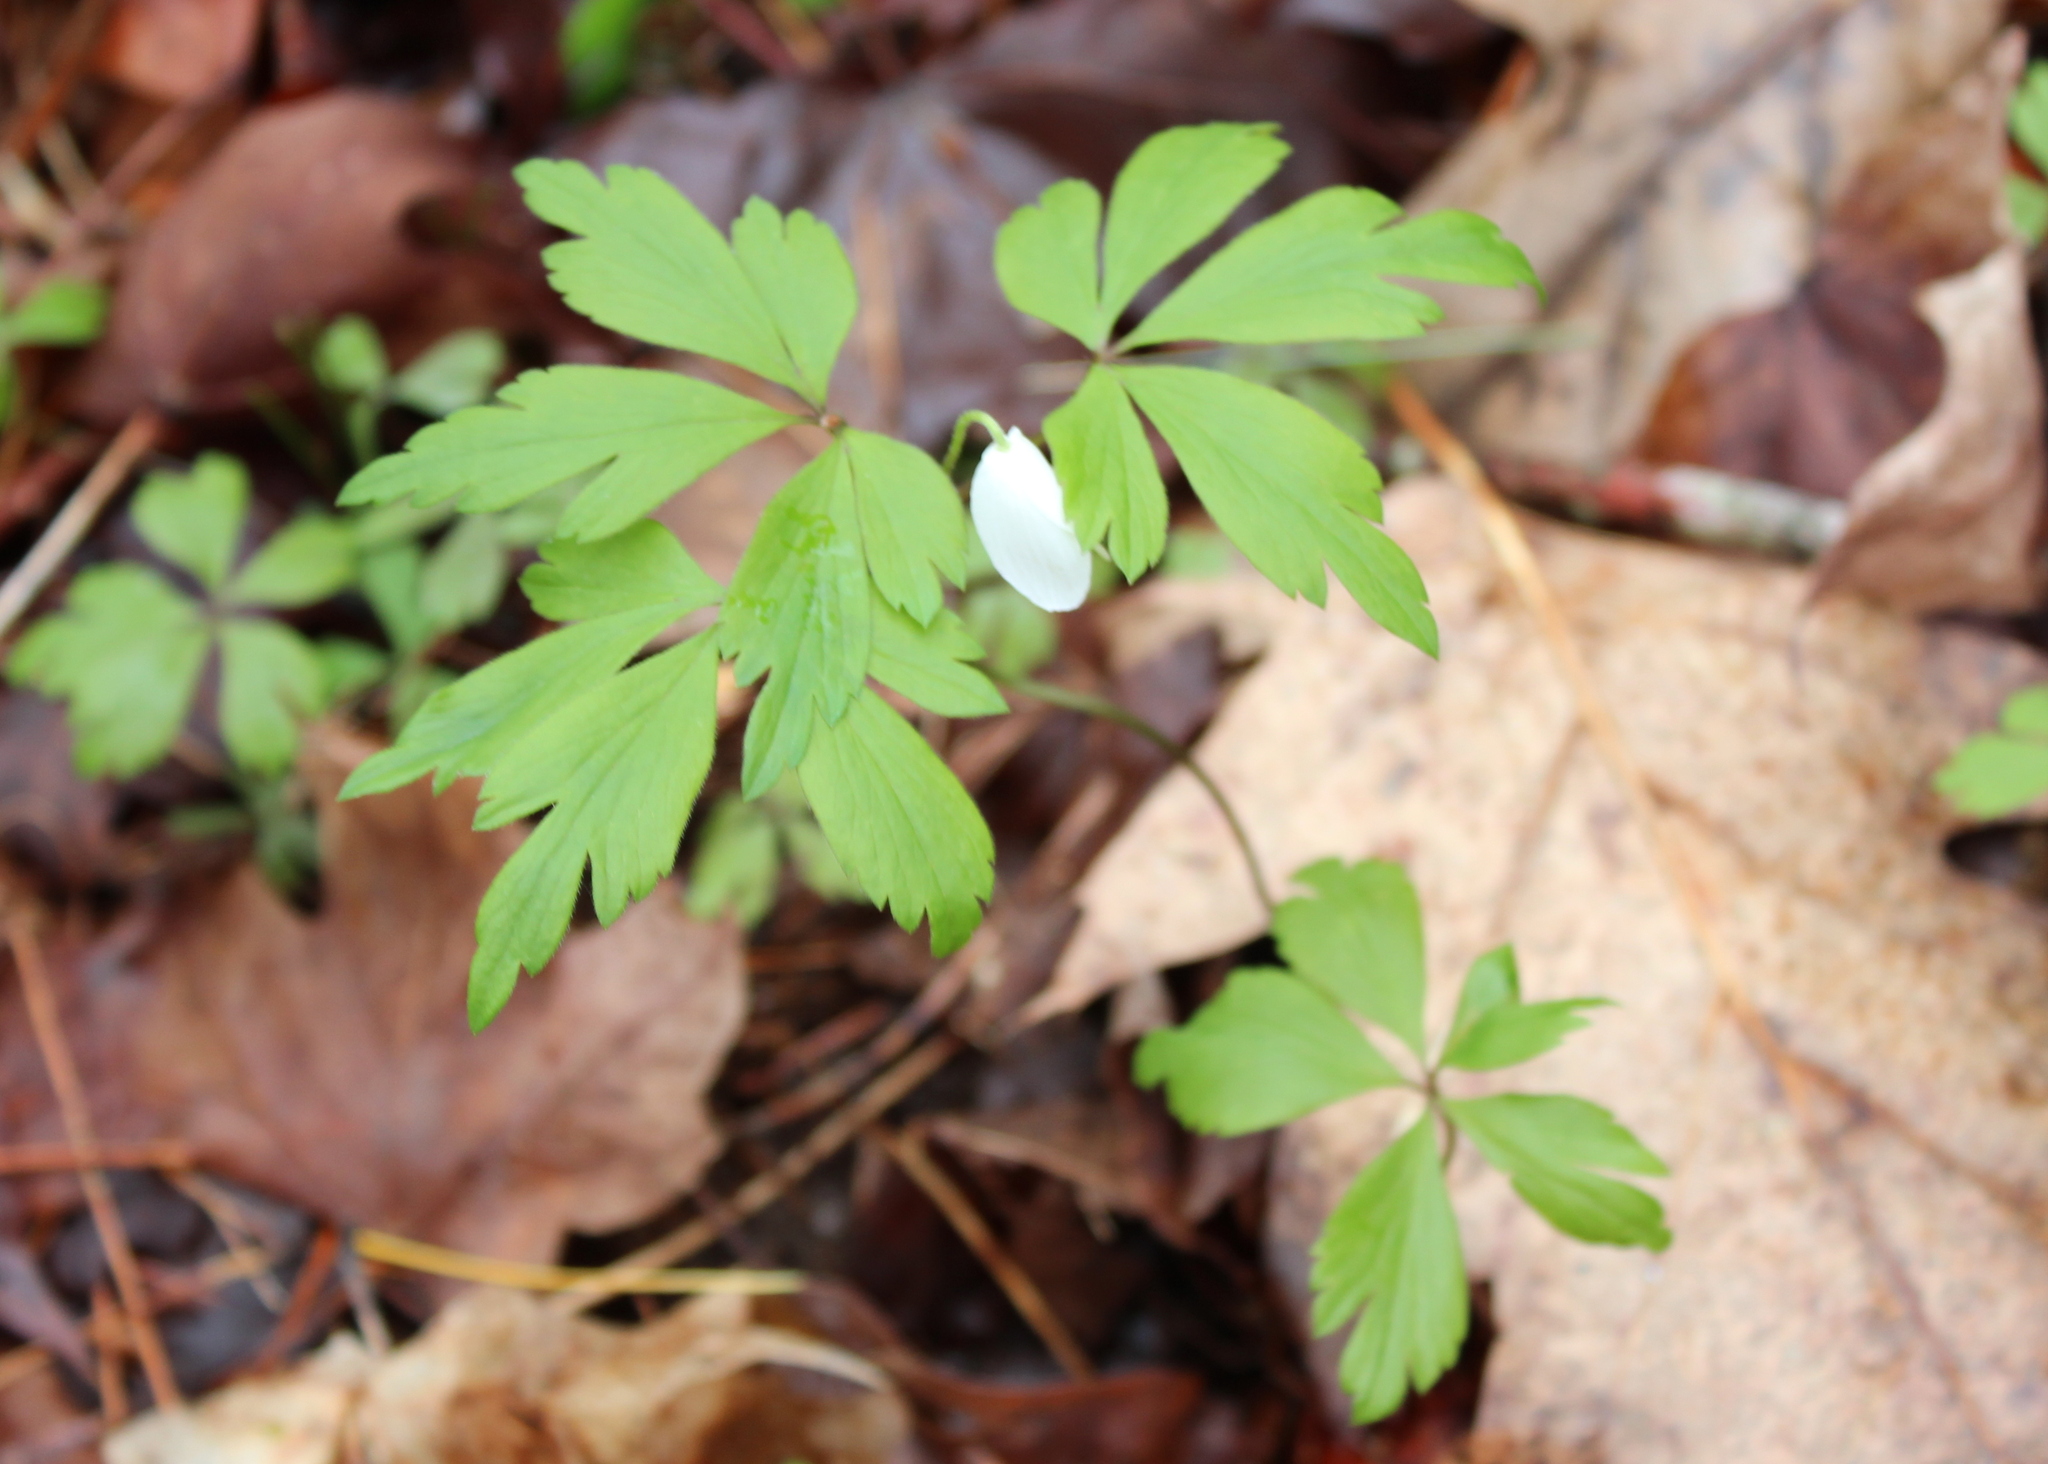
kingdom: Plantae
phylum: Tracheophyta
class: Magnoliopsida
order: Ranunculales
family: Ranunculaceae
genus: Anemone
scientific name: Anemone quinquefolia
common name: Wood anemone
